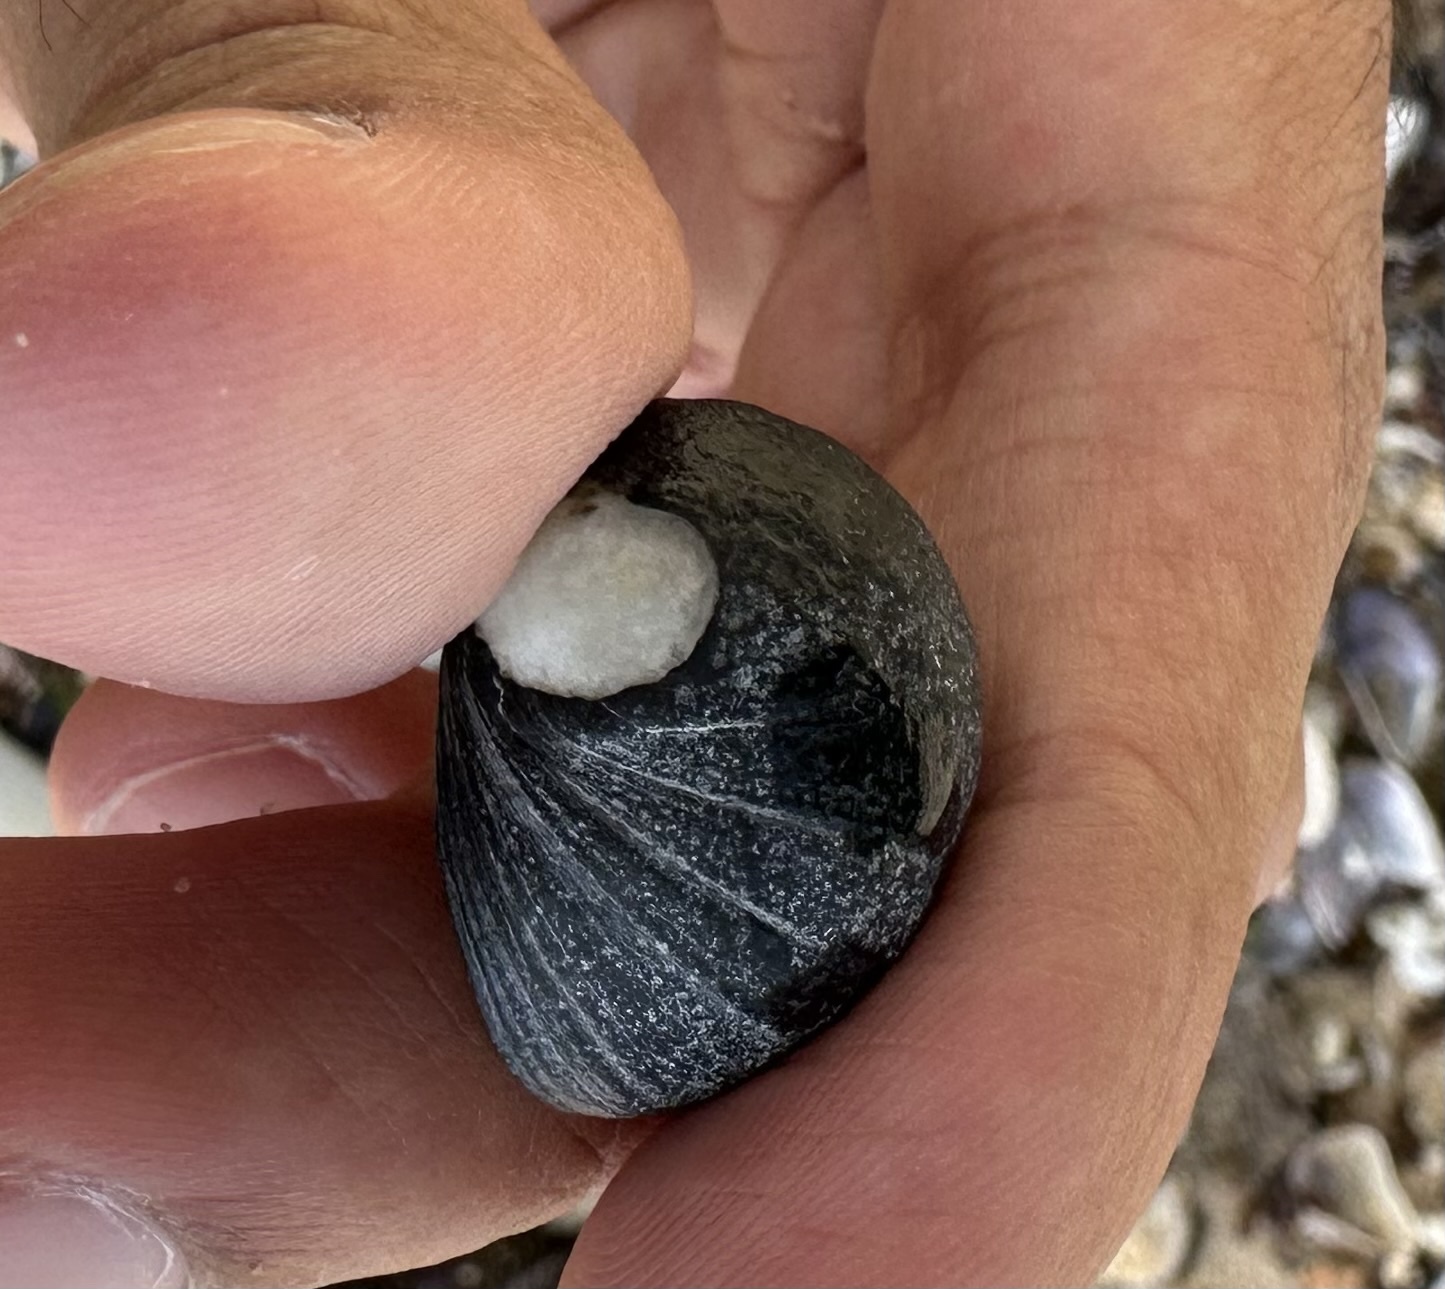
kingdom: Animalia
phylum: Mollusca
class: Gastropoda
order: Cycloneritida
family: Neritidae
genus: Nerita
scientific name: Nerita melanotragus
